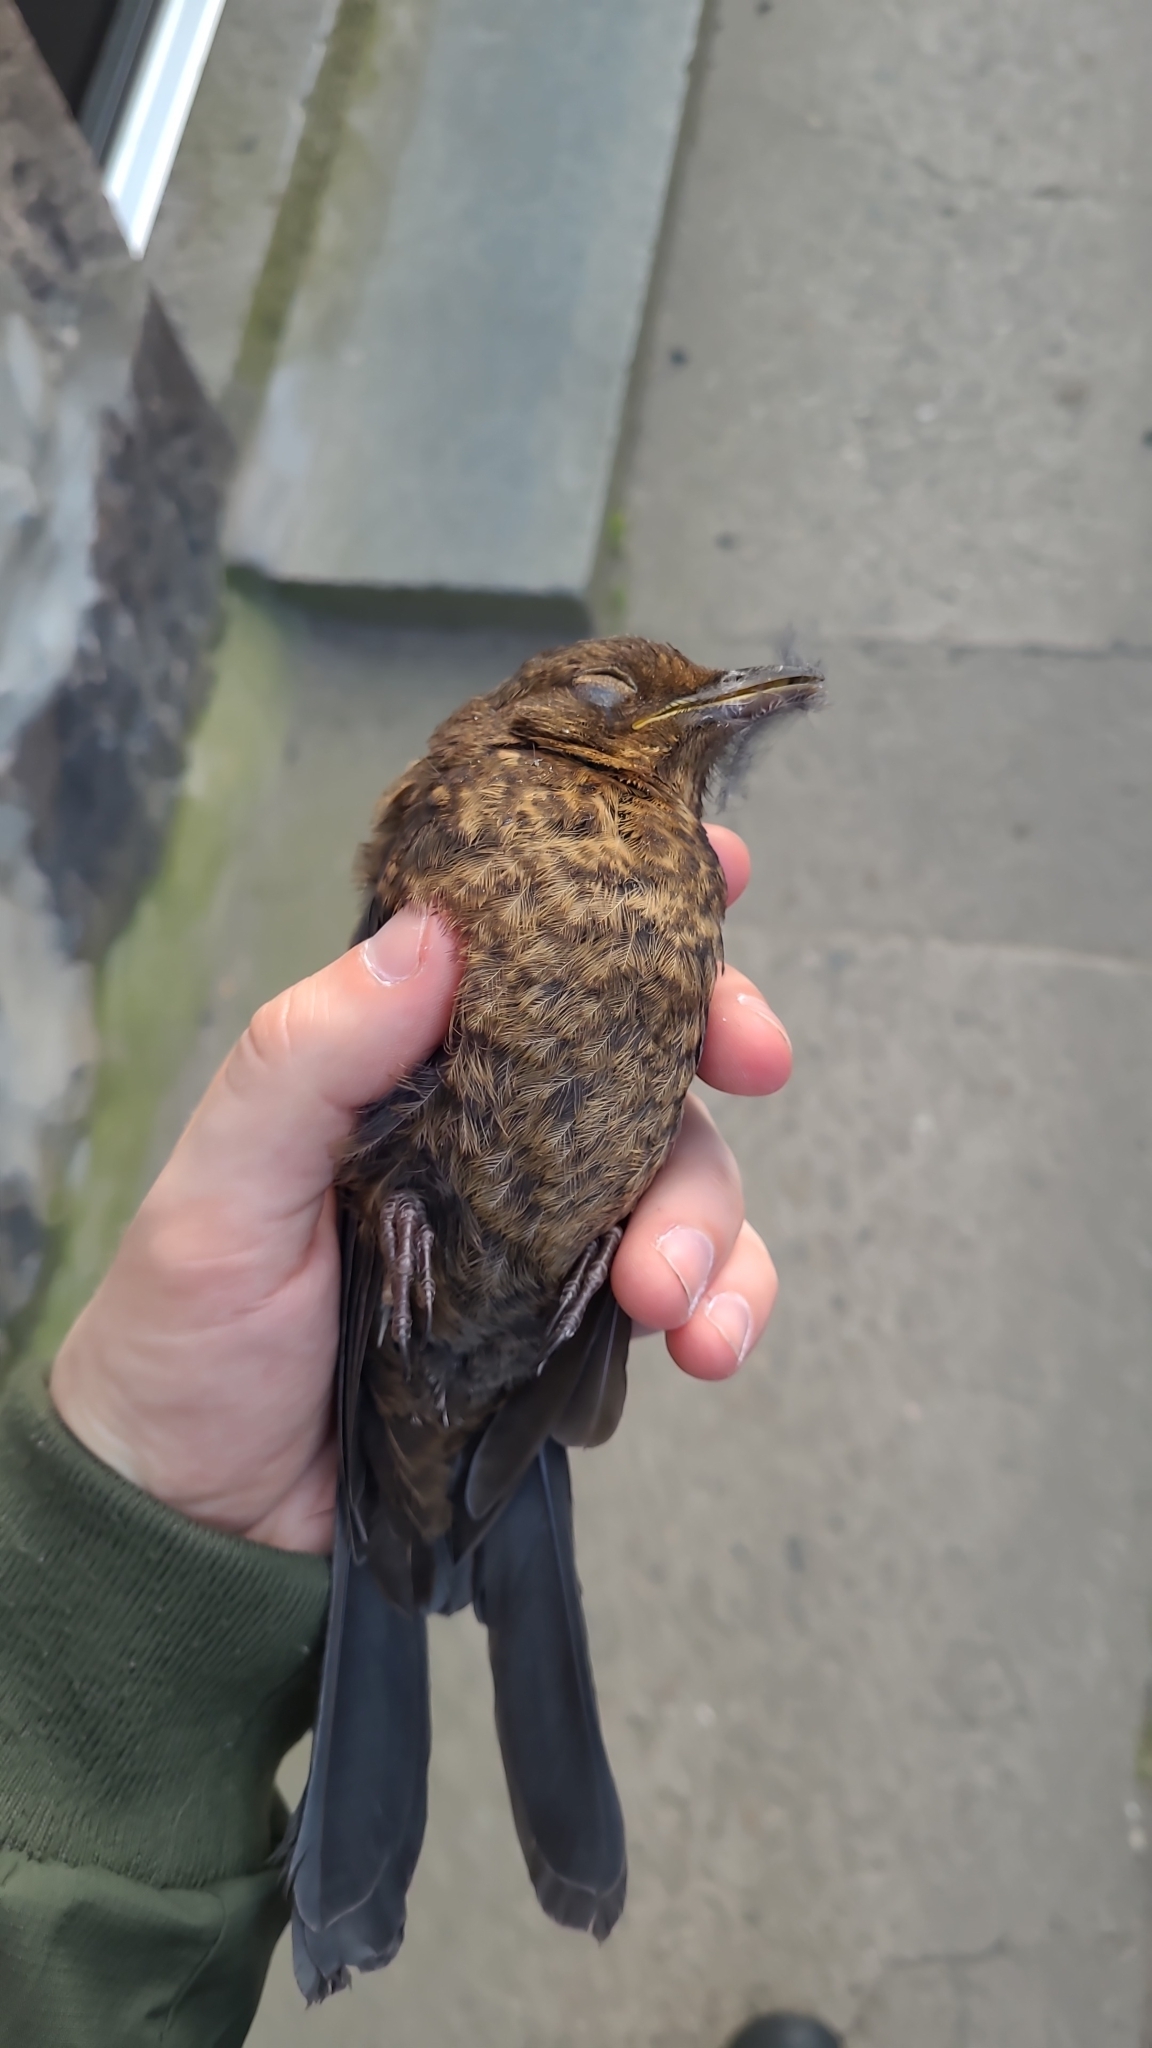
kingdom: Animalia
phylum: Chordata
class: Aves
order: Passeriformes
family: Turdidae
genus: Turdus
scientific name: Turdus merula
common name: Common blackbird
